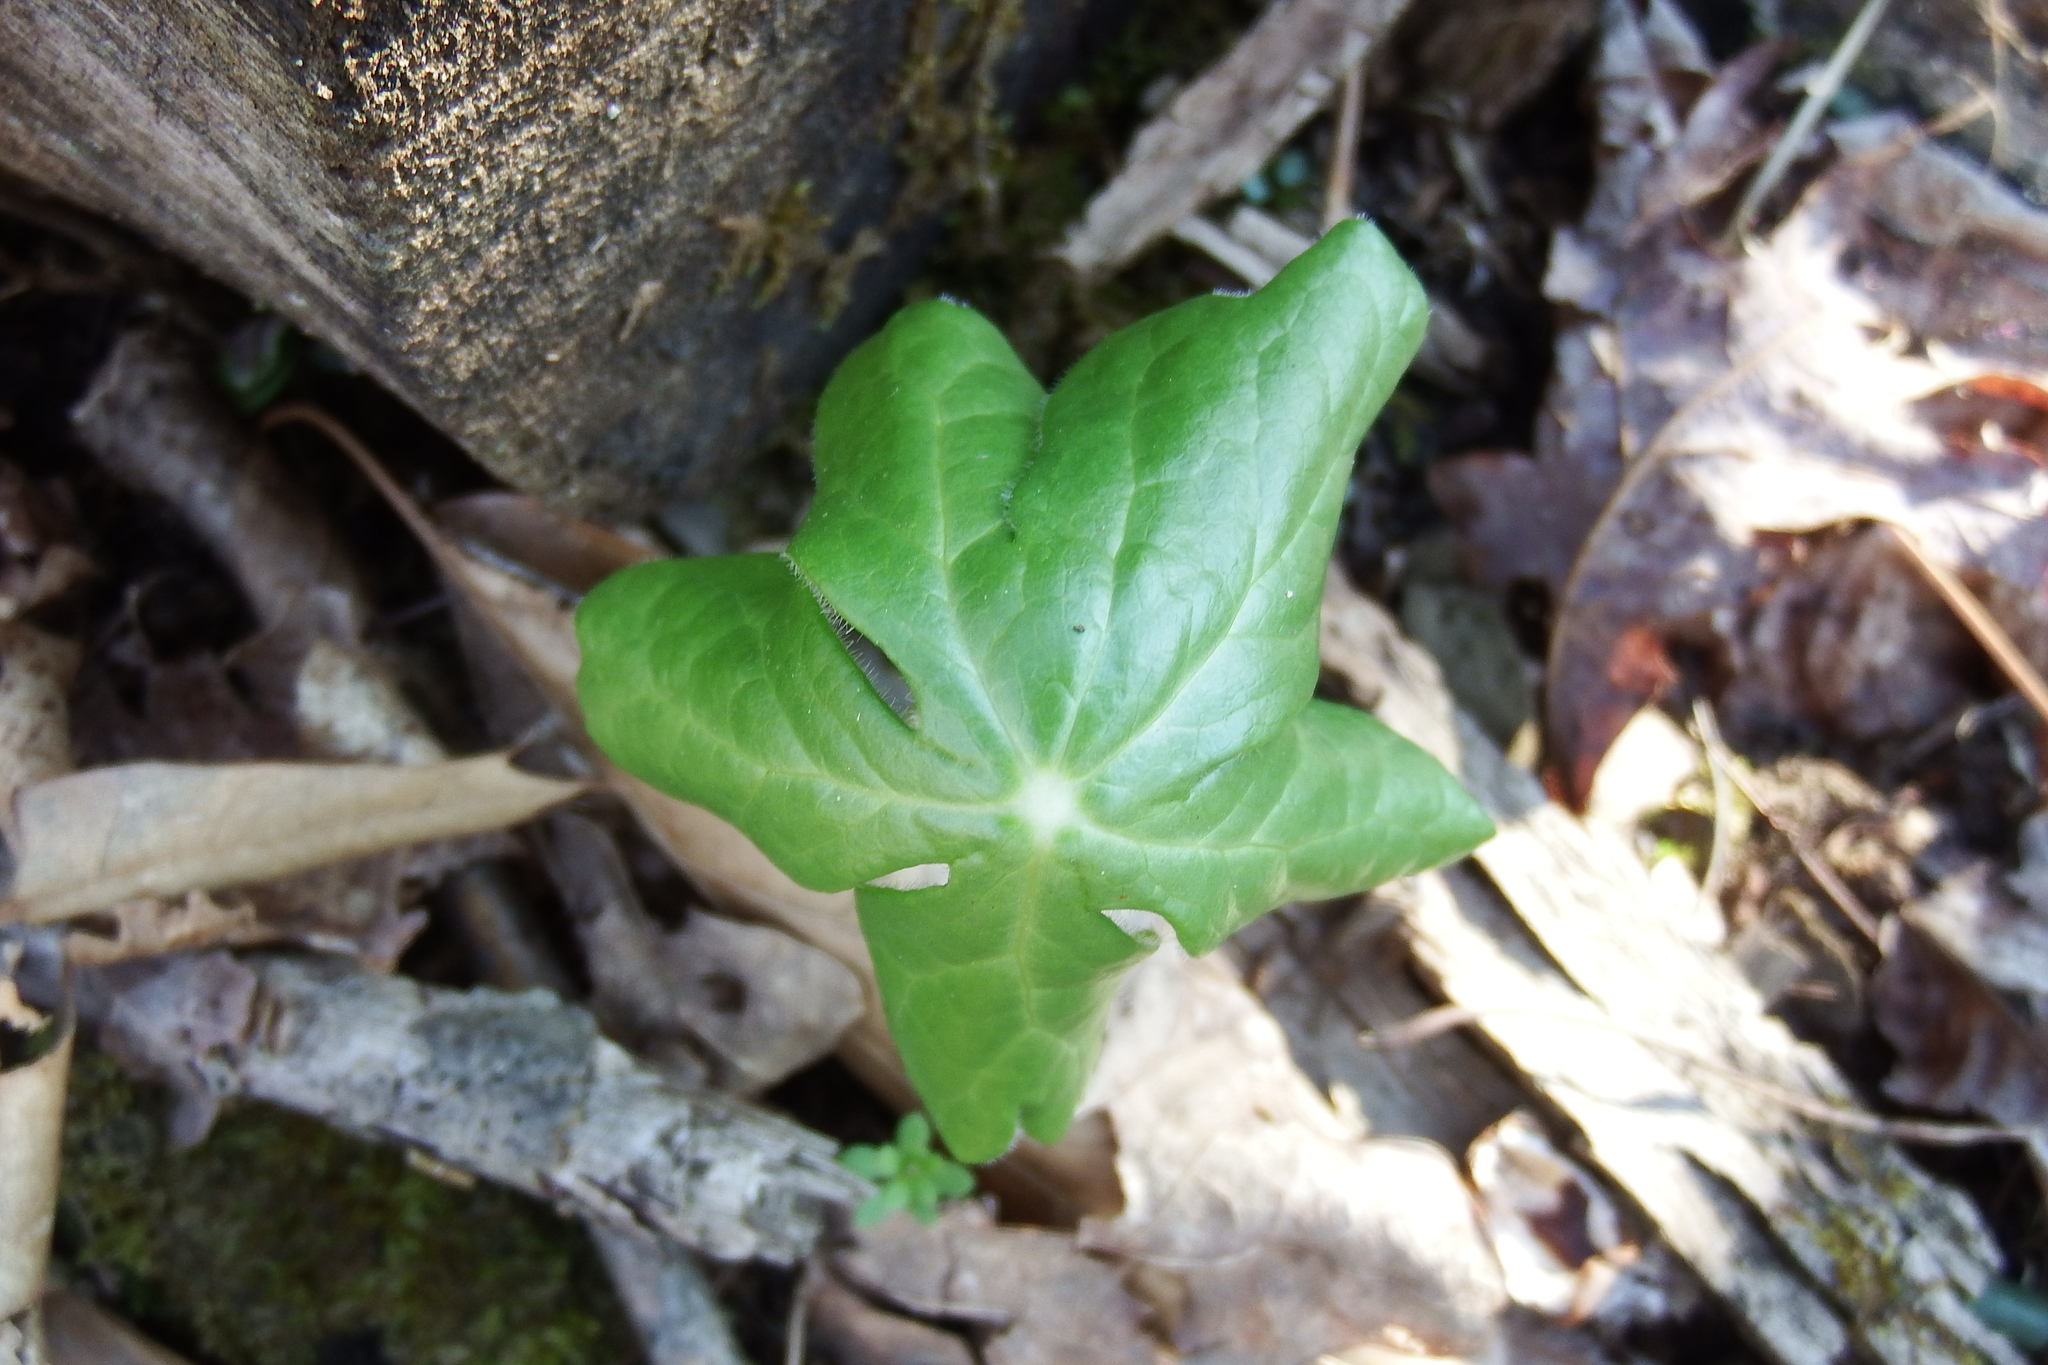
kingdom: Plantae
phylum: Tracheophyta
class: Magnoliopsida
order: Ranunculales
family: Berberidaceae
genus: Podophyllum
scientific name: Podophyllum peltatum
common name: Wild mandrake
